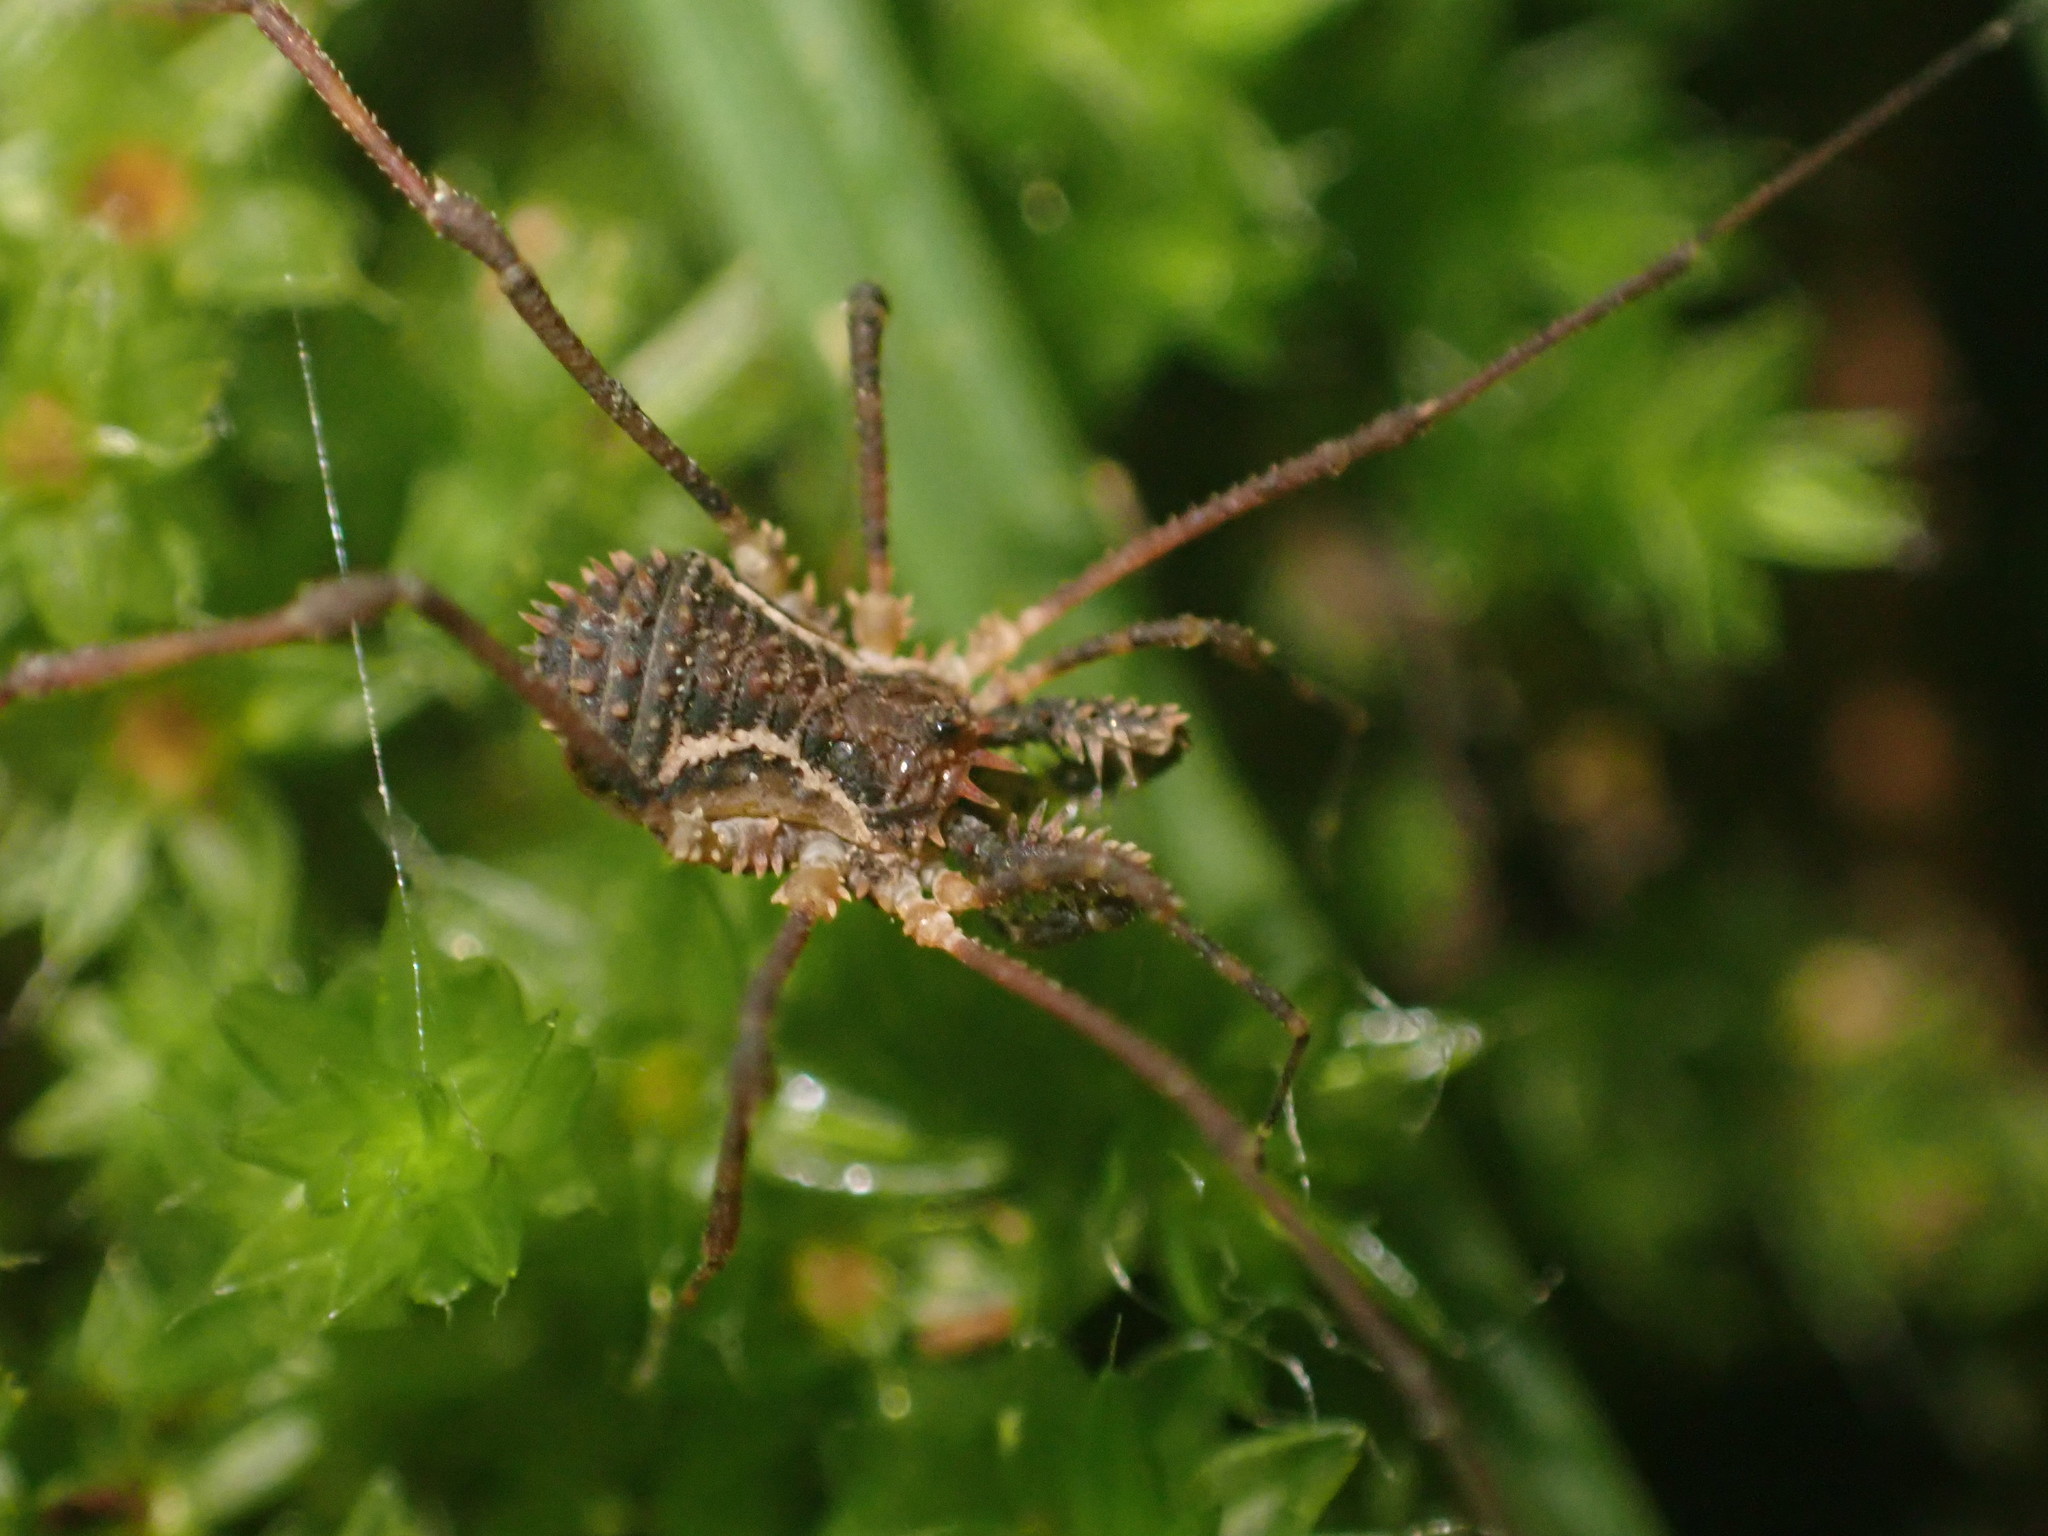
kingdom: Animalia
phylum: Arthropoda
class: Arachnida
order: Opiliones
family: Triaenonychidae
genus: Algidia
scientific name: Algidia chiltoni
